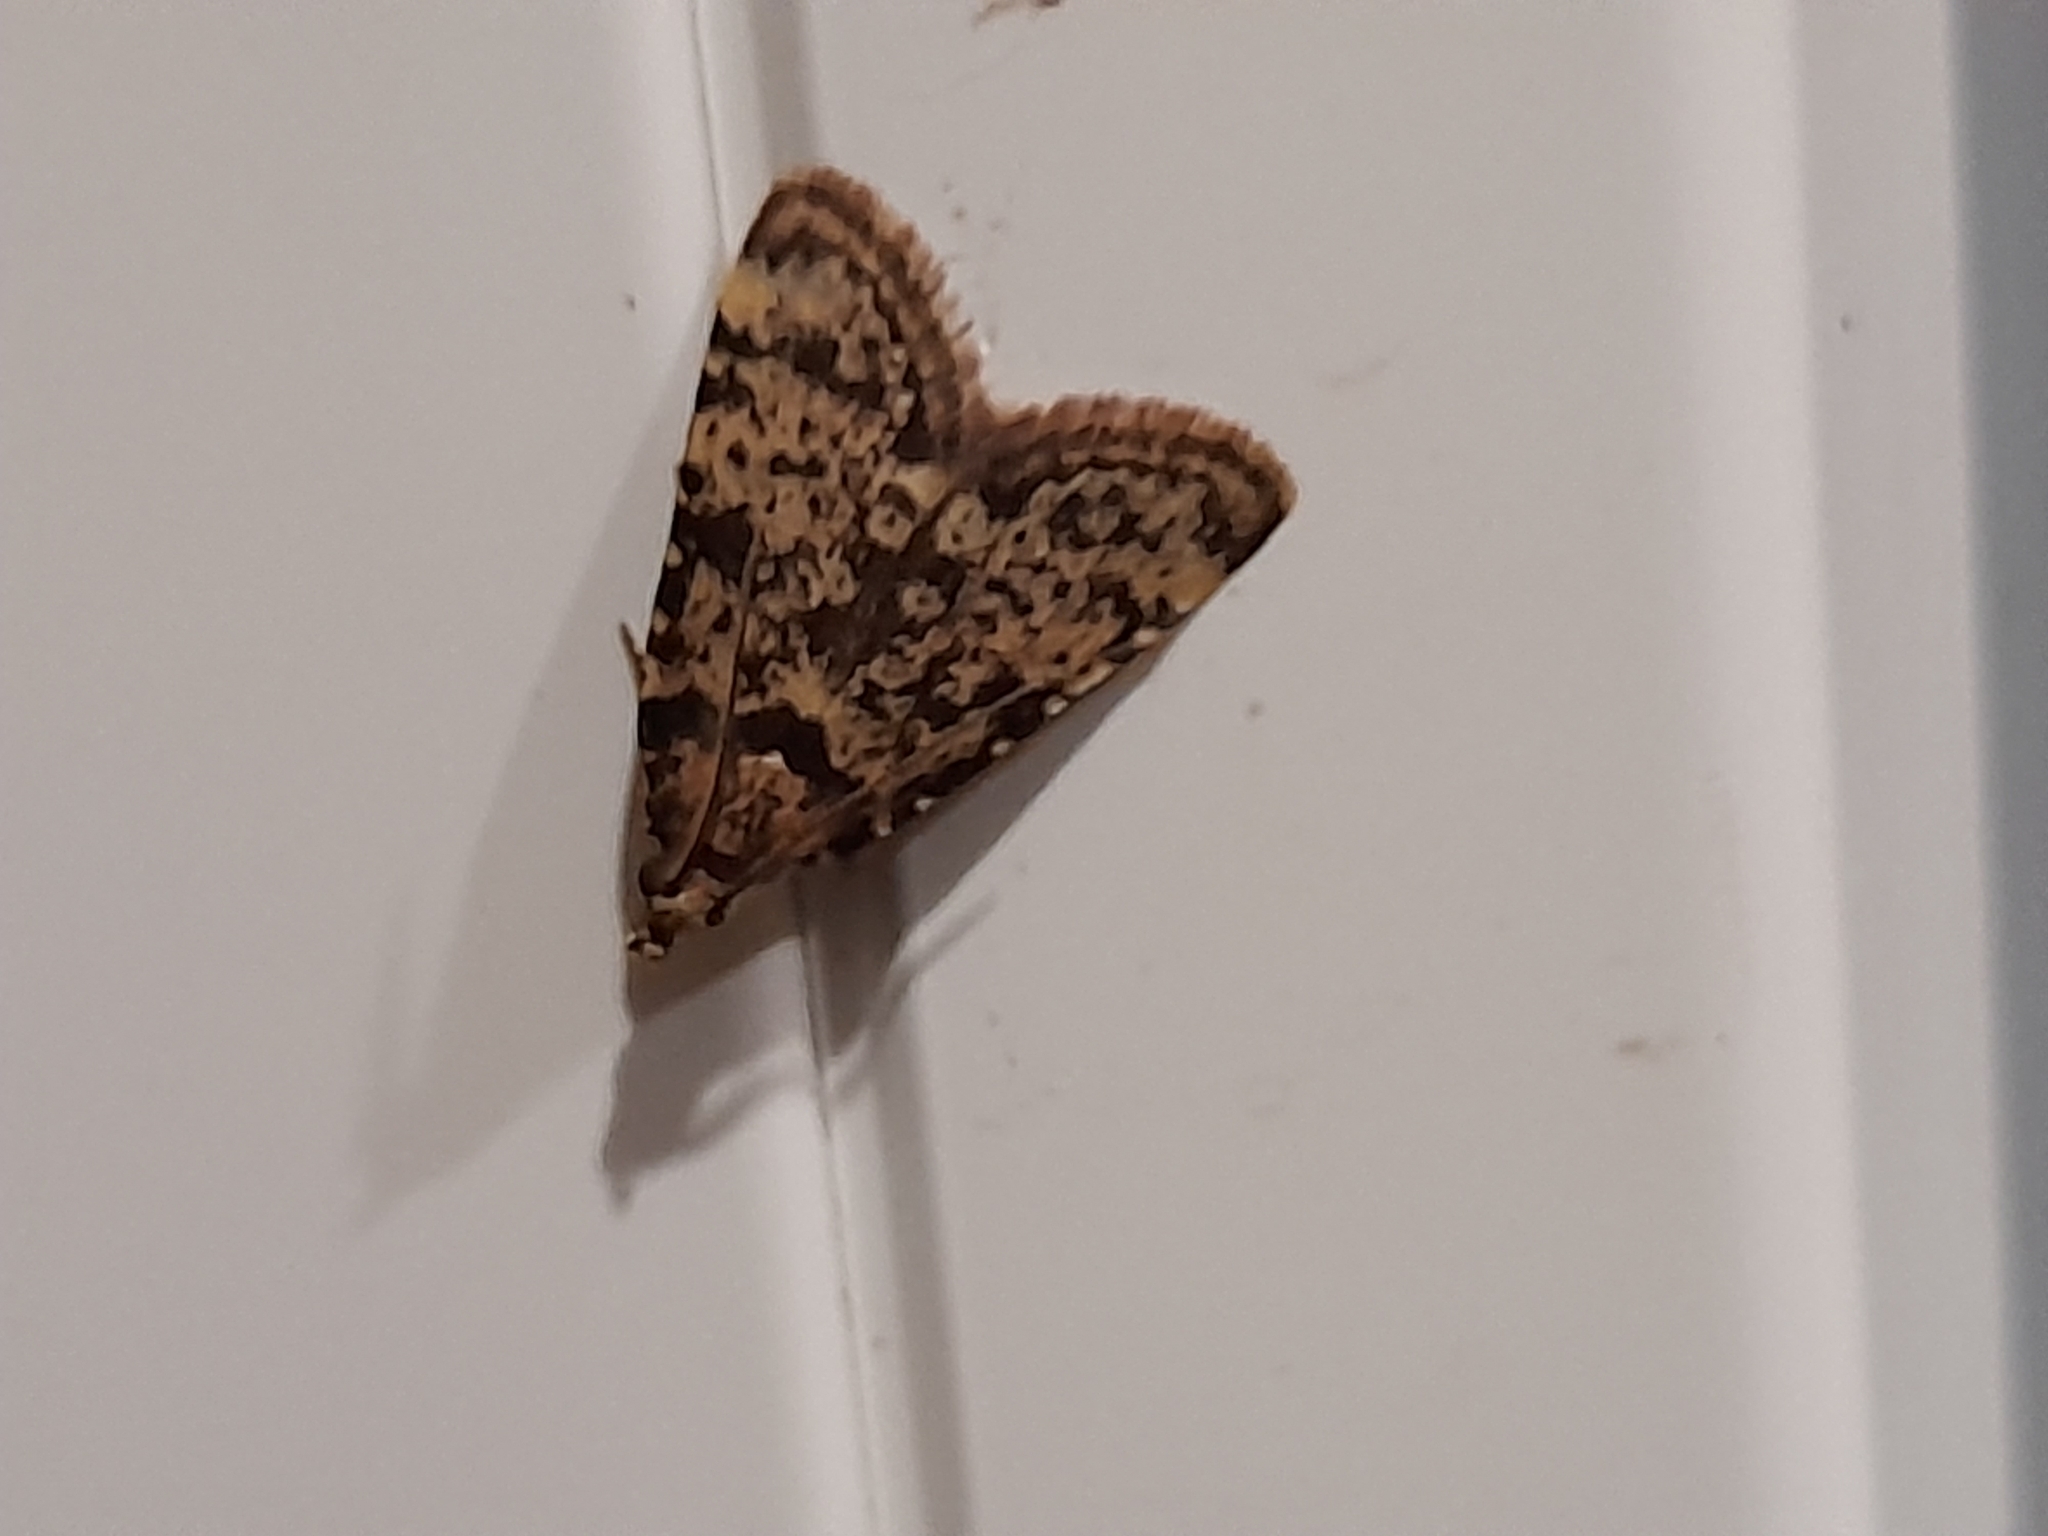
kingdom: Animalia
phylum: Arthropoda
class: Insecta
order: Lepidoptera
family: Pyralidae
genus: Aglossa
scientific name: Aglossa brabanti
